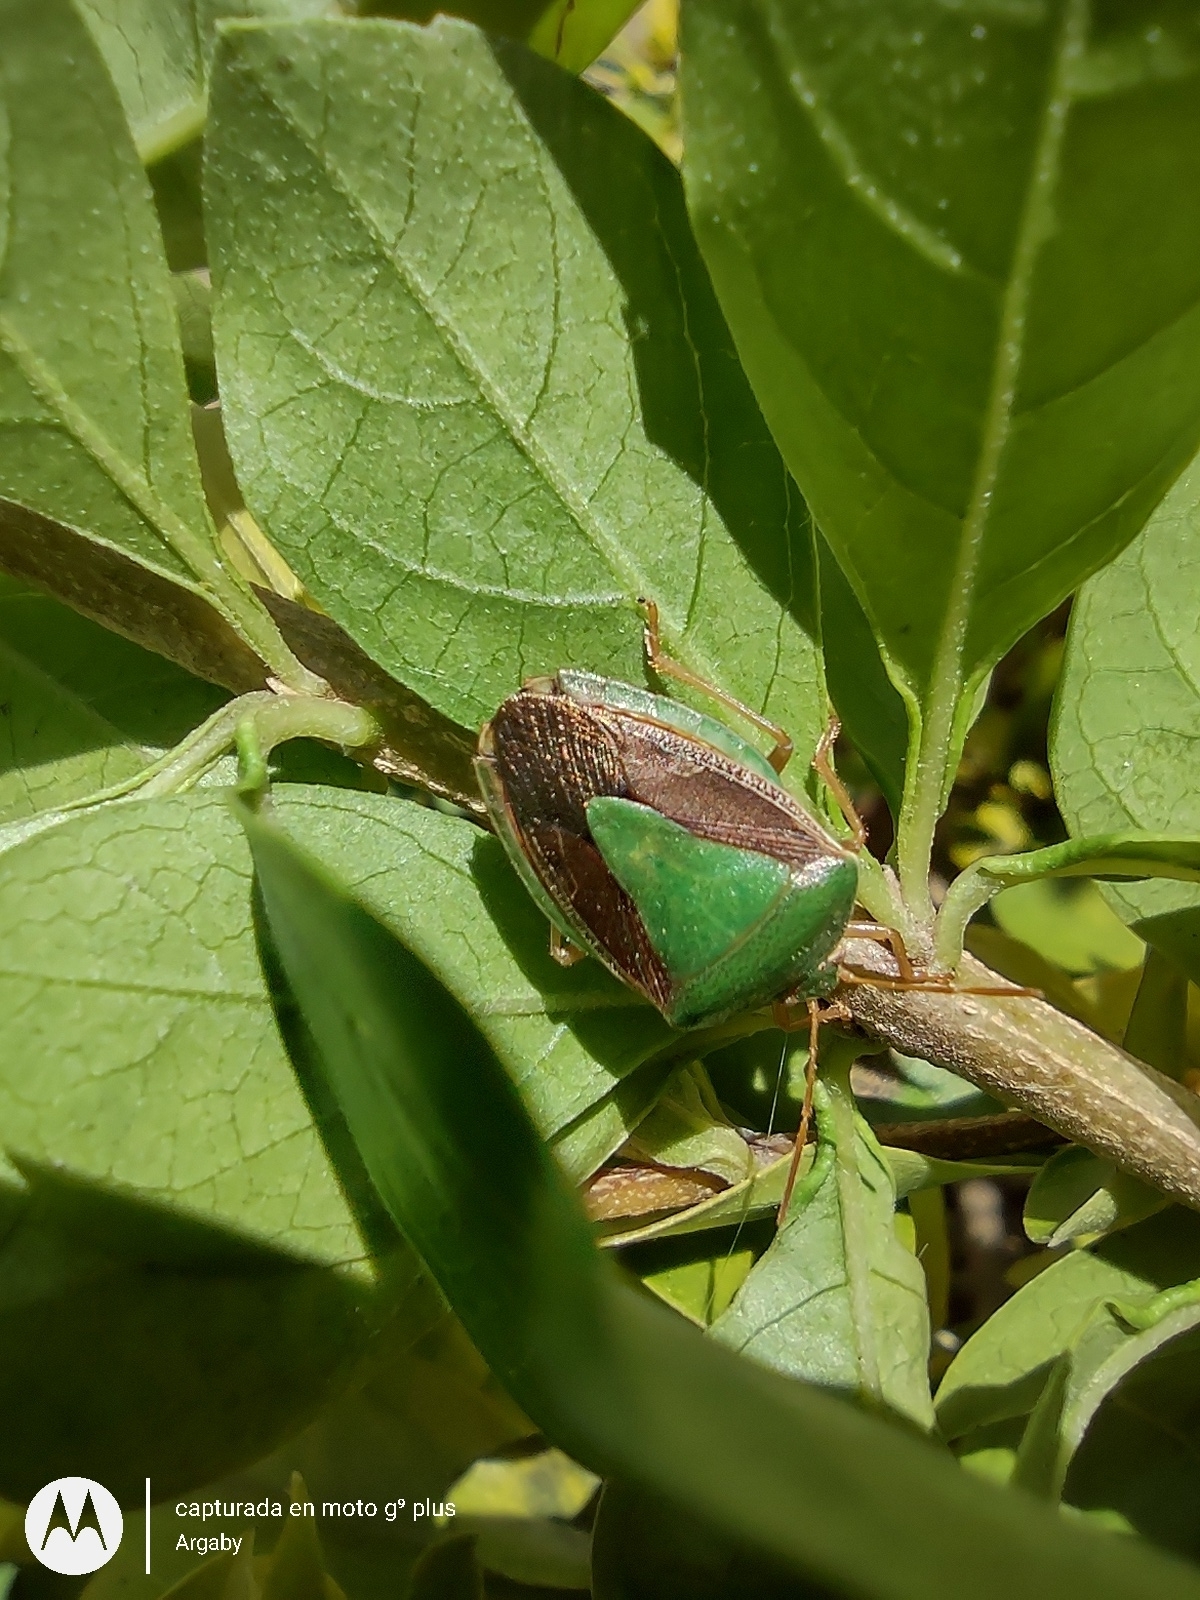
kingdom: Animalia
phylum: Arthropoda
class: Insecta
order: Hemiptera
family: Pentatomidae
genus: Edessa
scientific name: Edessa meditabunda
